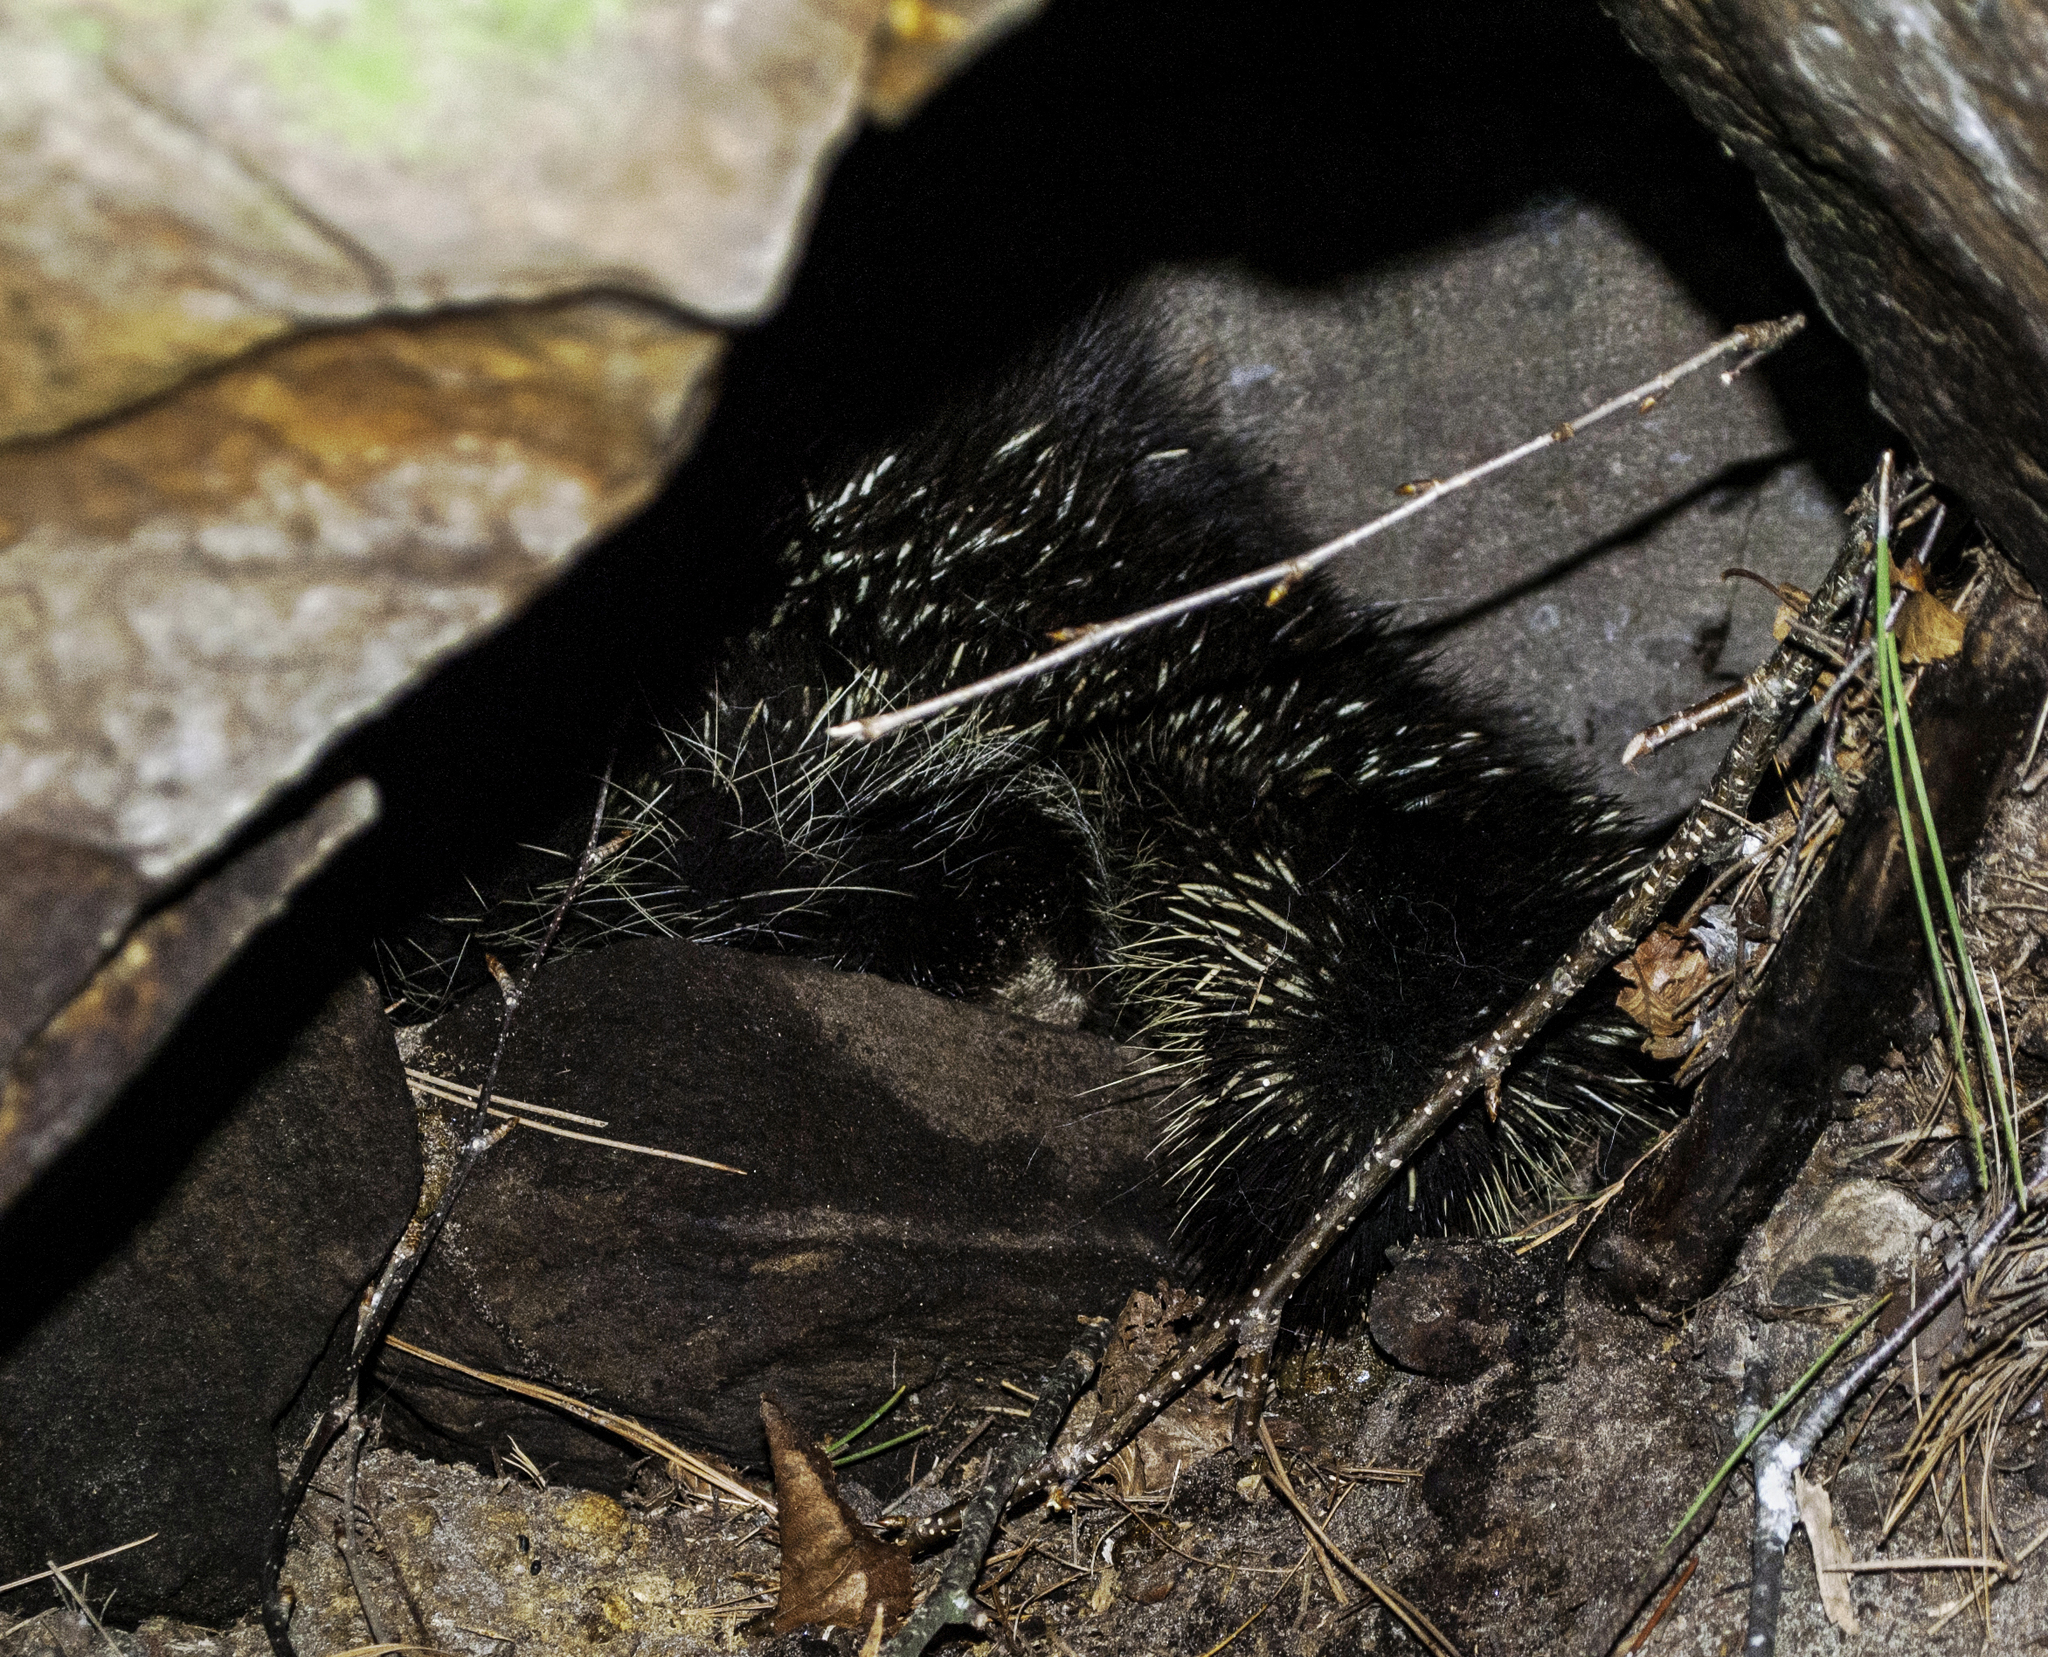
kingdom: Animalia
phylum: Chordata
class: Mammalia
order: Rodentia
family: Erethizontidae
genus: Erethizon
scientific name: Erethizon dorsatus
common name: North american porcupine
